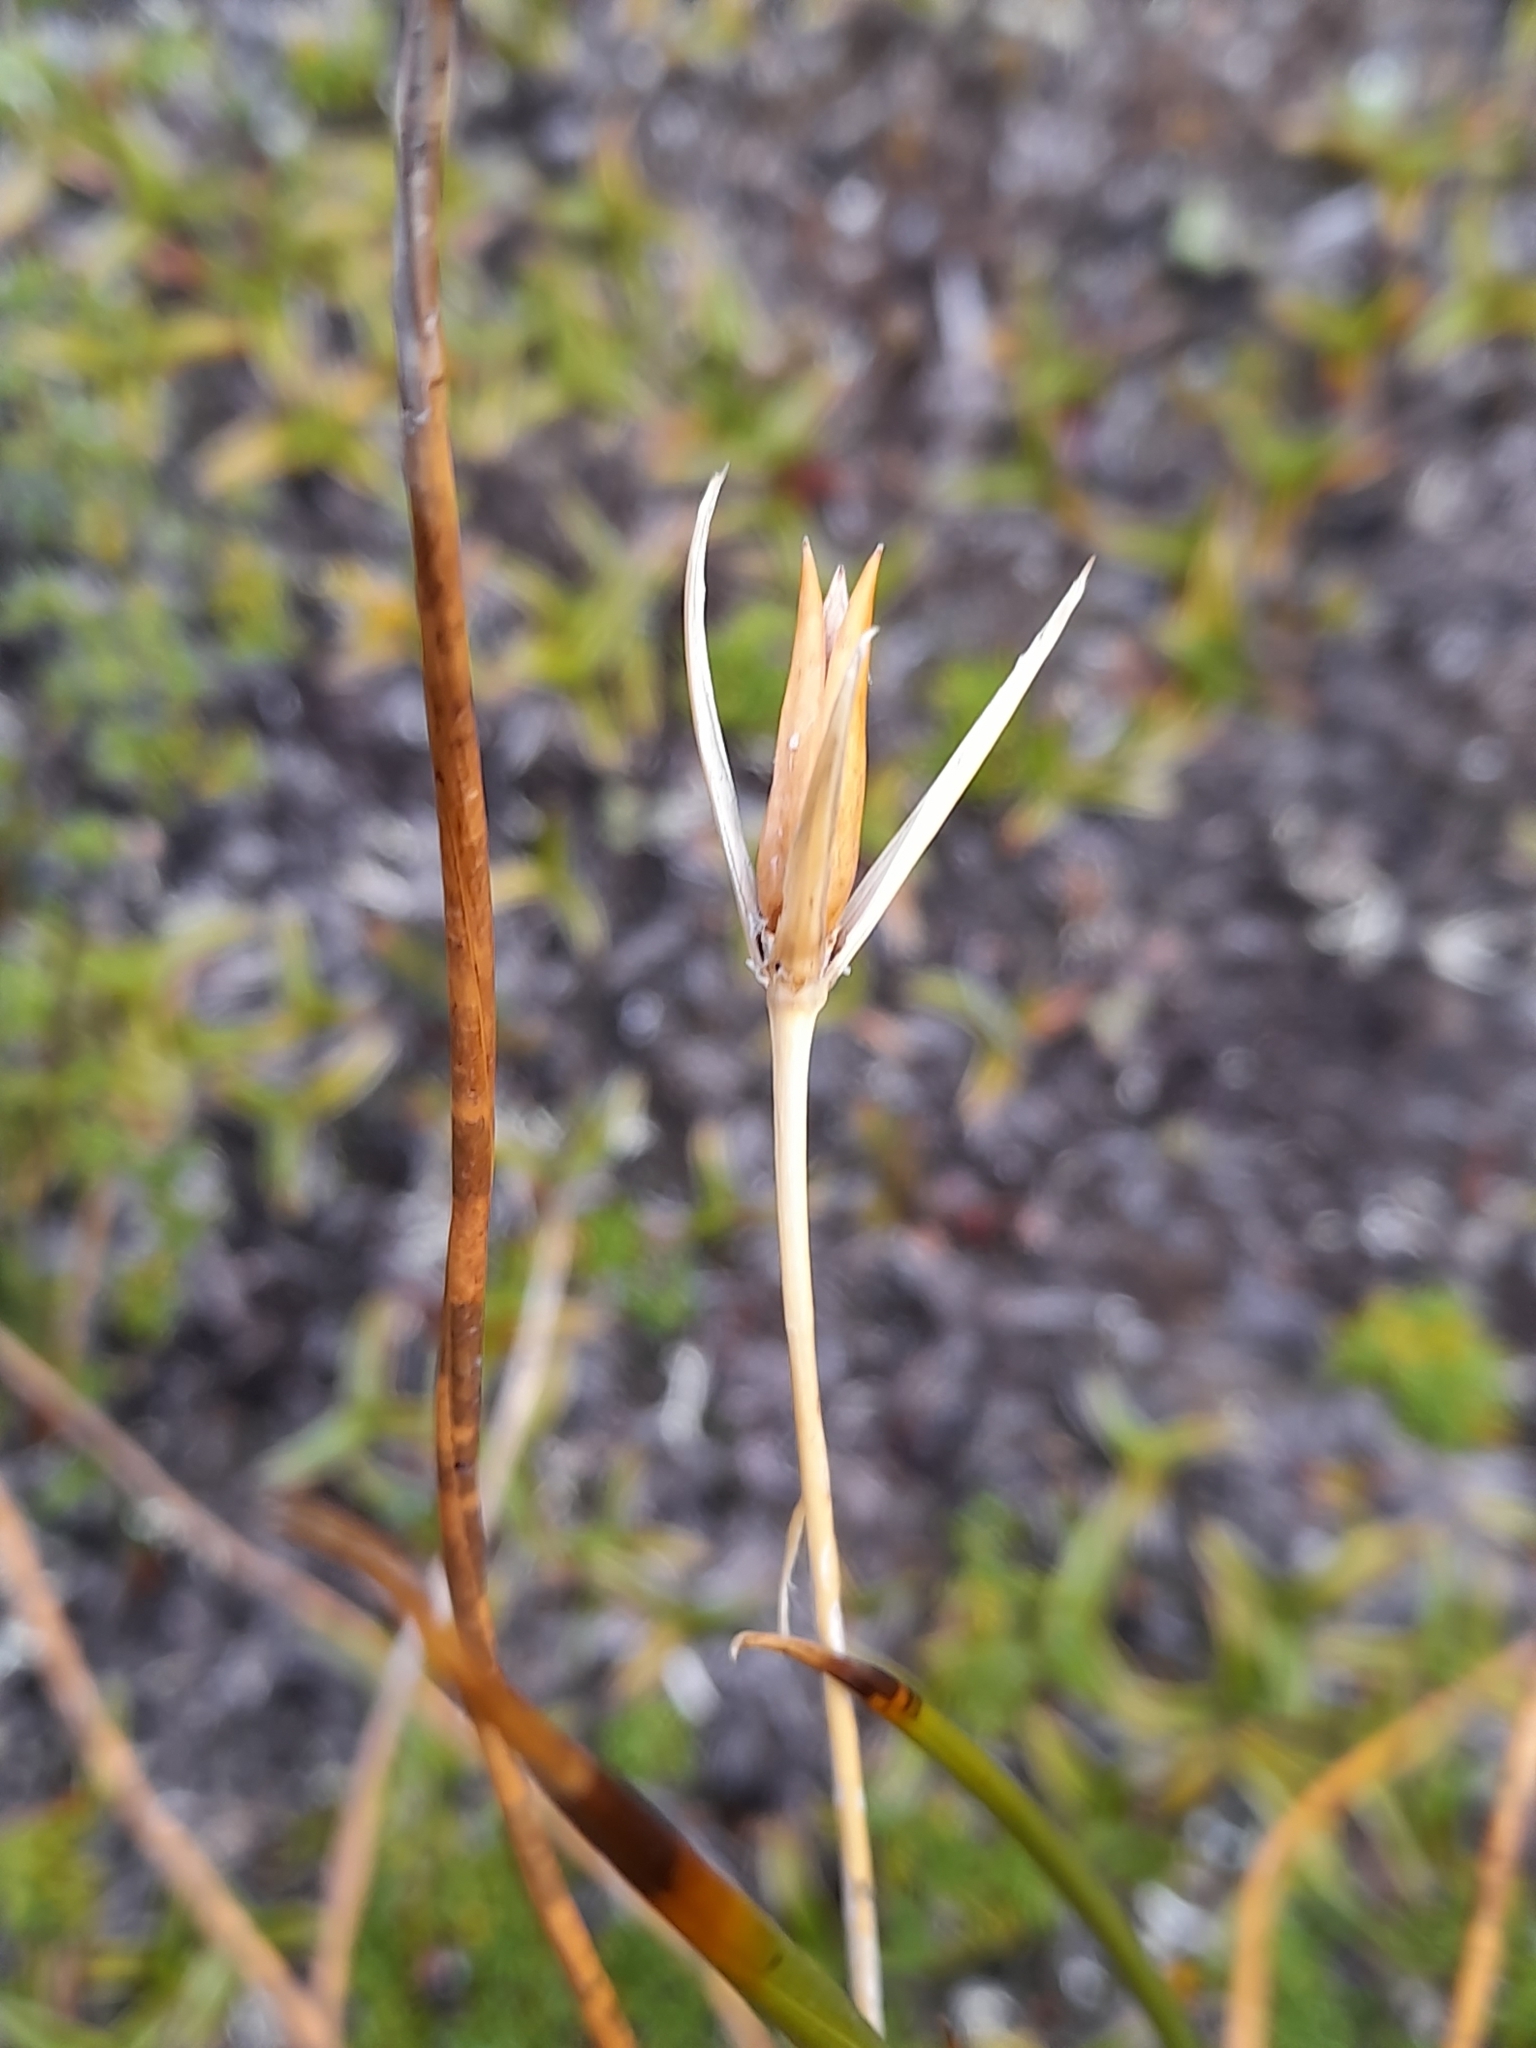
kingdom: Plantae
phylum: Tracheophyta
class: Liliopsida
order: Poales
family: Juncaceae
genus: Marsippospermum
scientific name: Marsippospermum grandiflorum
